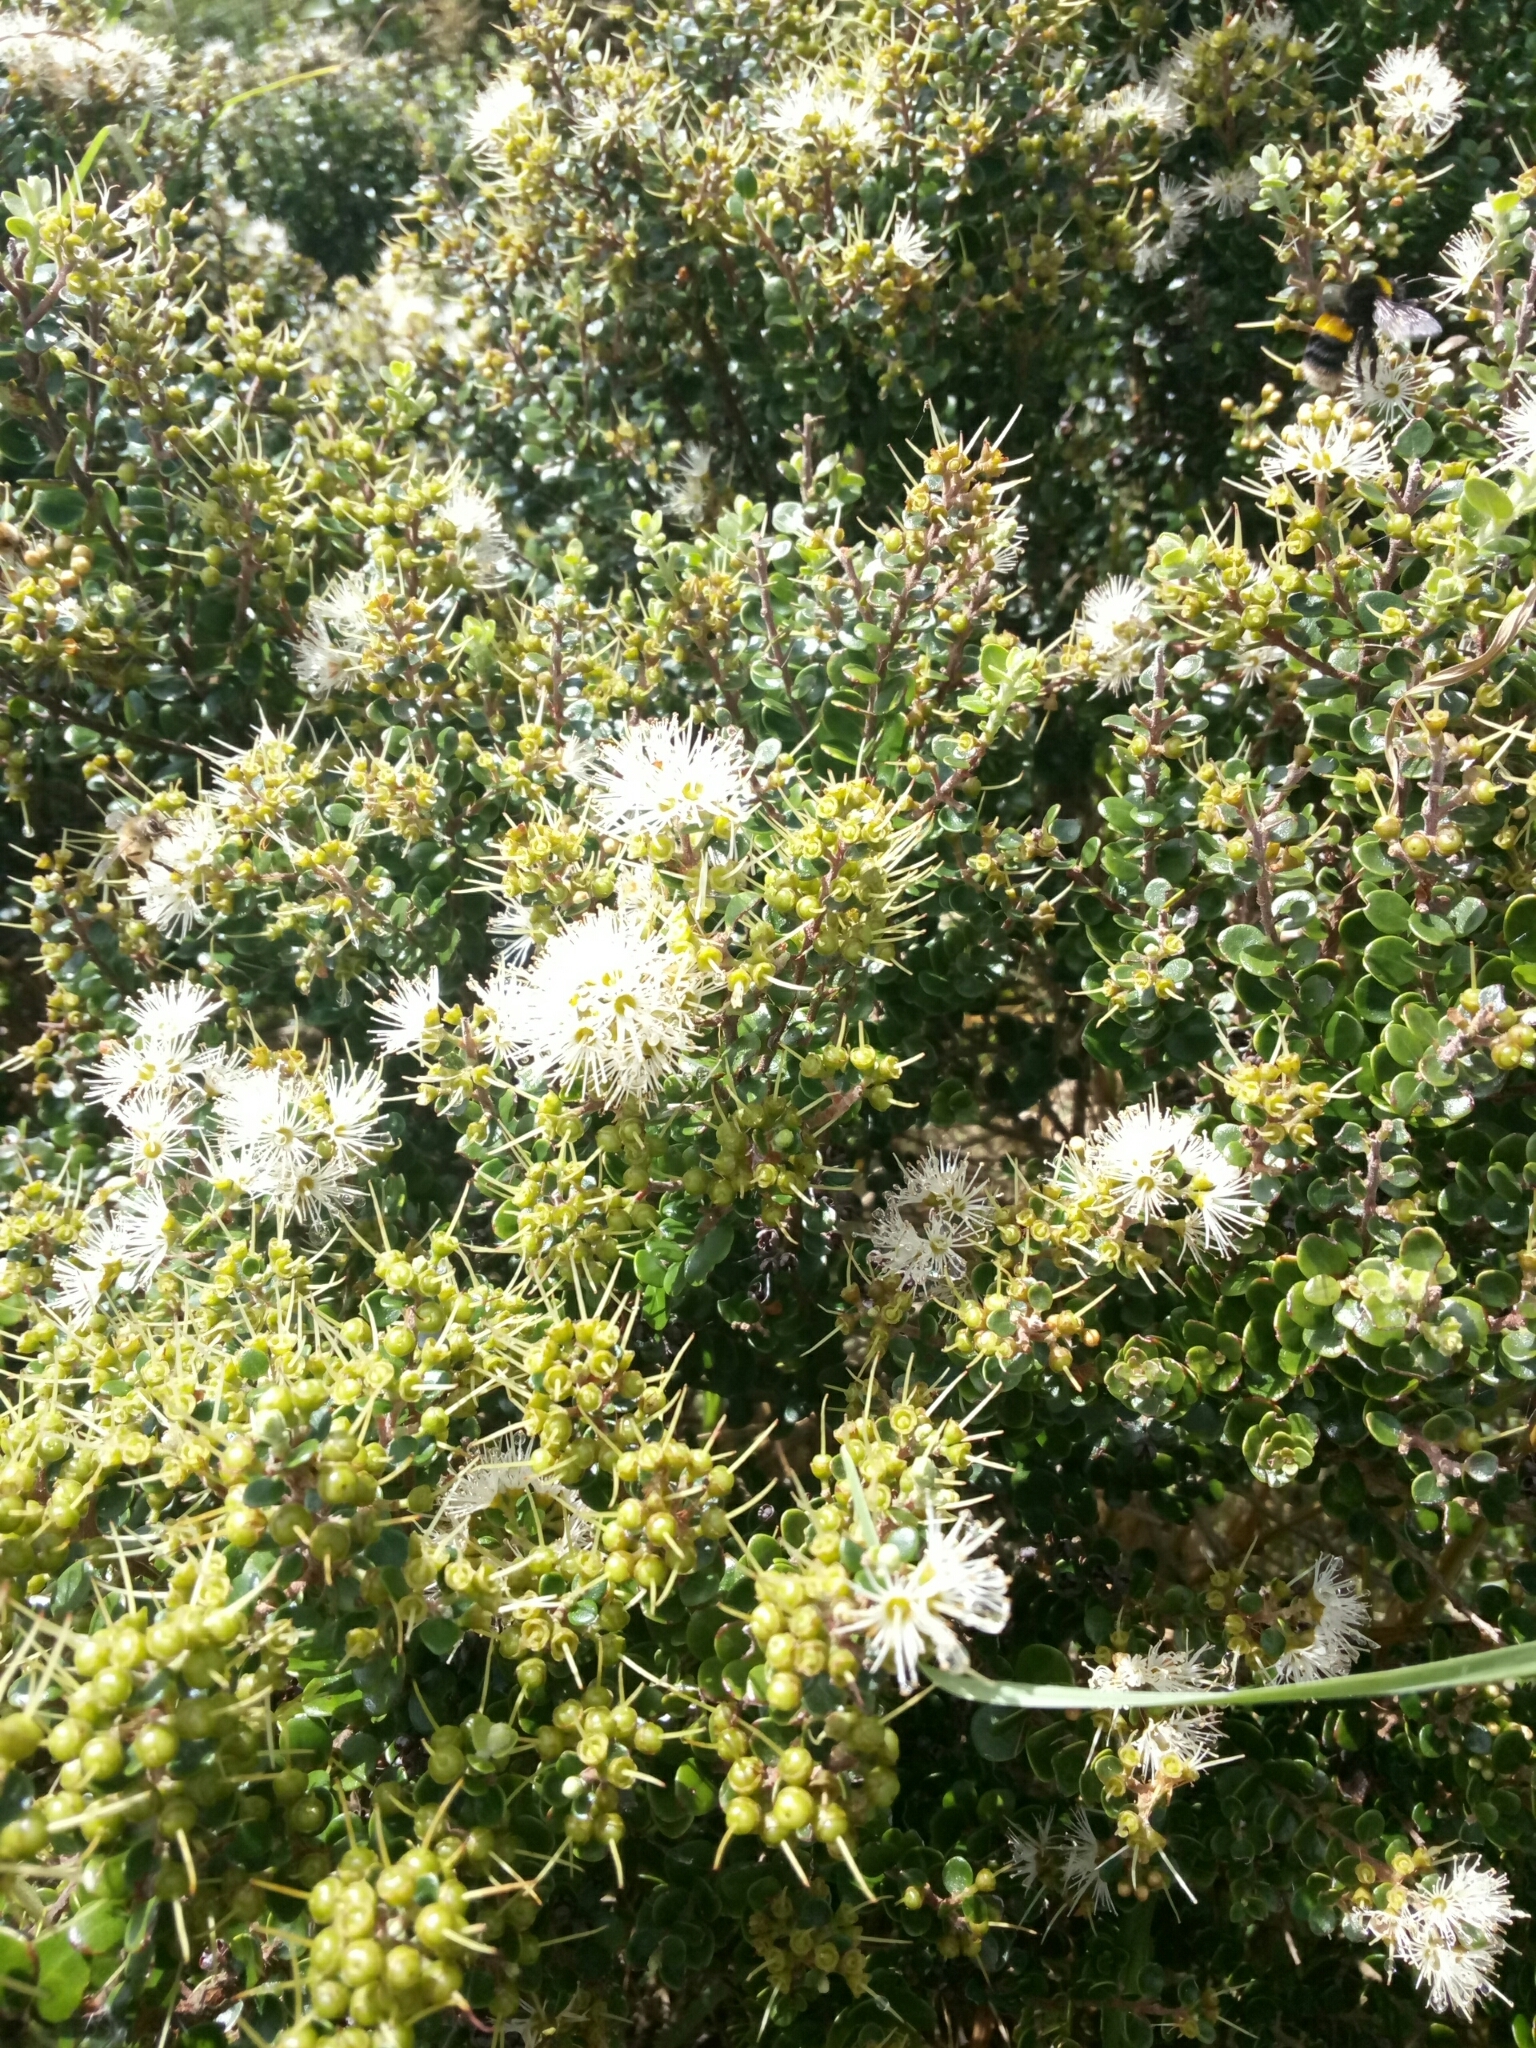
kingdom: Plantae
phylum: Tracheophyta
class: Magnoliopsida
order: Myrtales
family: Myrtaceae
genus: Metrosideros
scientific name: Metrosideros perforata
